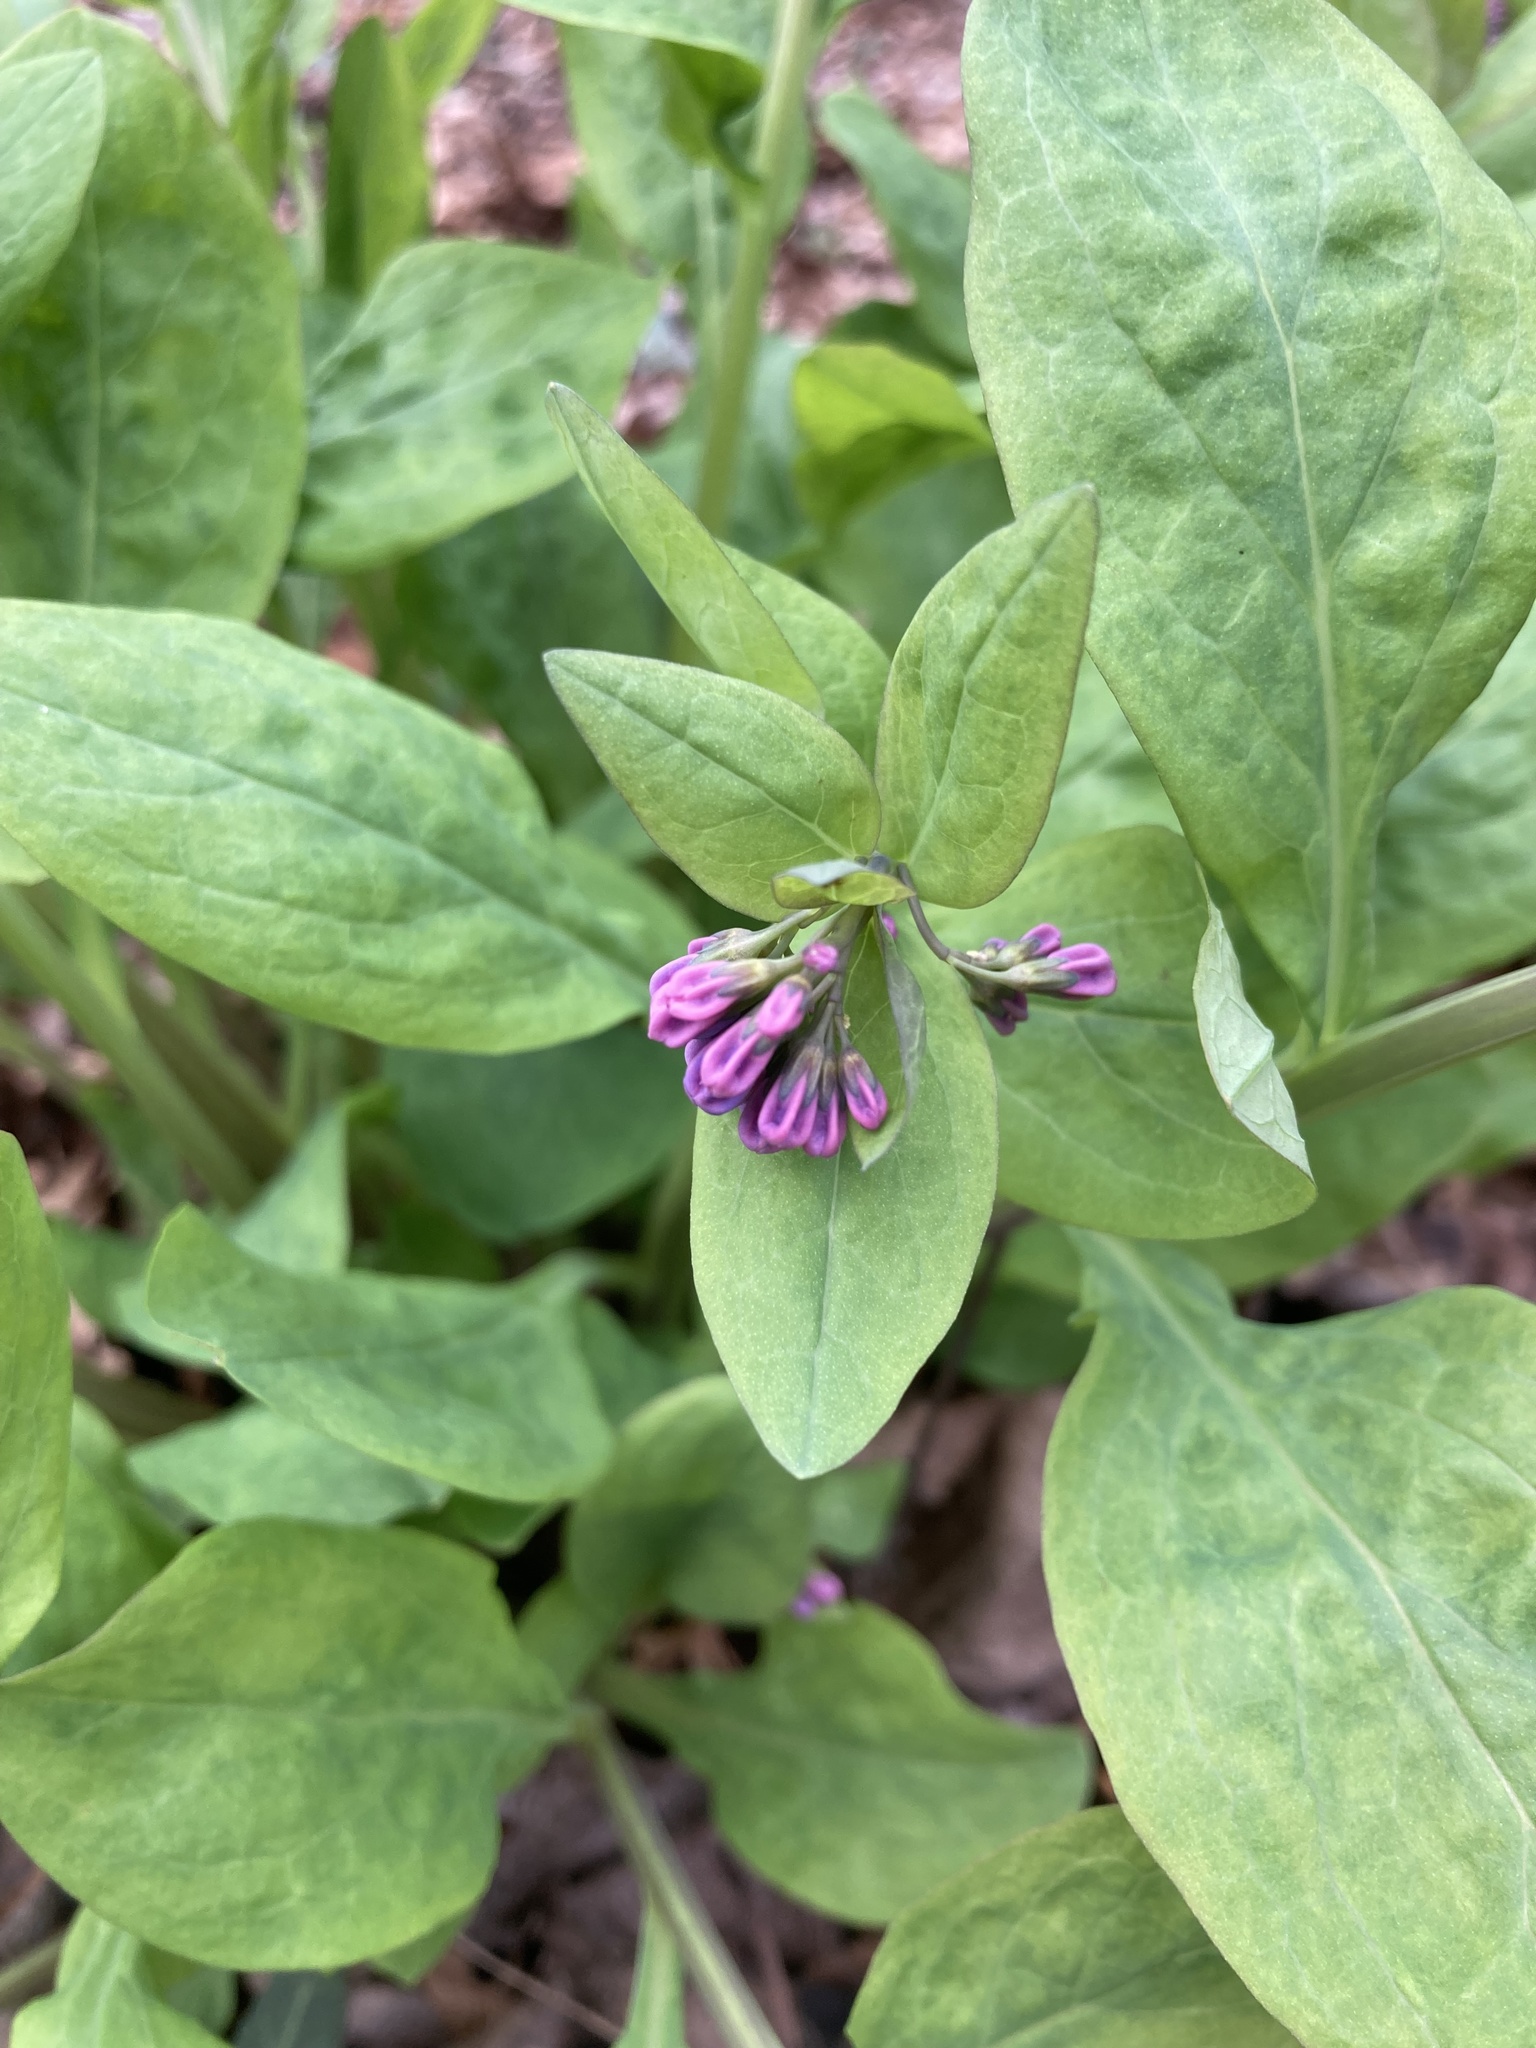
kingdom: Plantae
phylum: Tracheophyta
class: Magnoliopsida
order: Boraginales
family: Boraginaceae
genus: Mertensia
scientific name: Mertensia virginica
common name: Virginia bluebells
